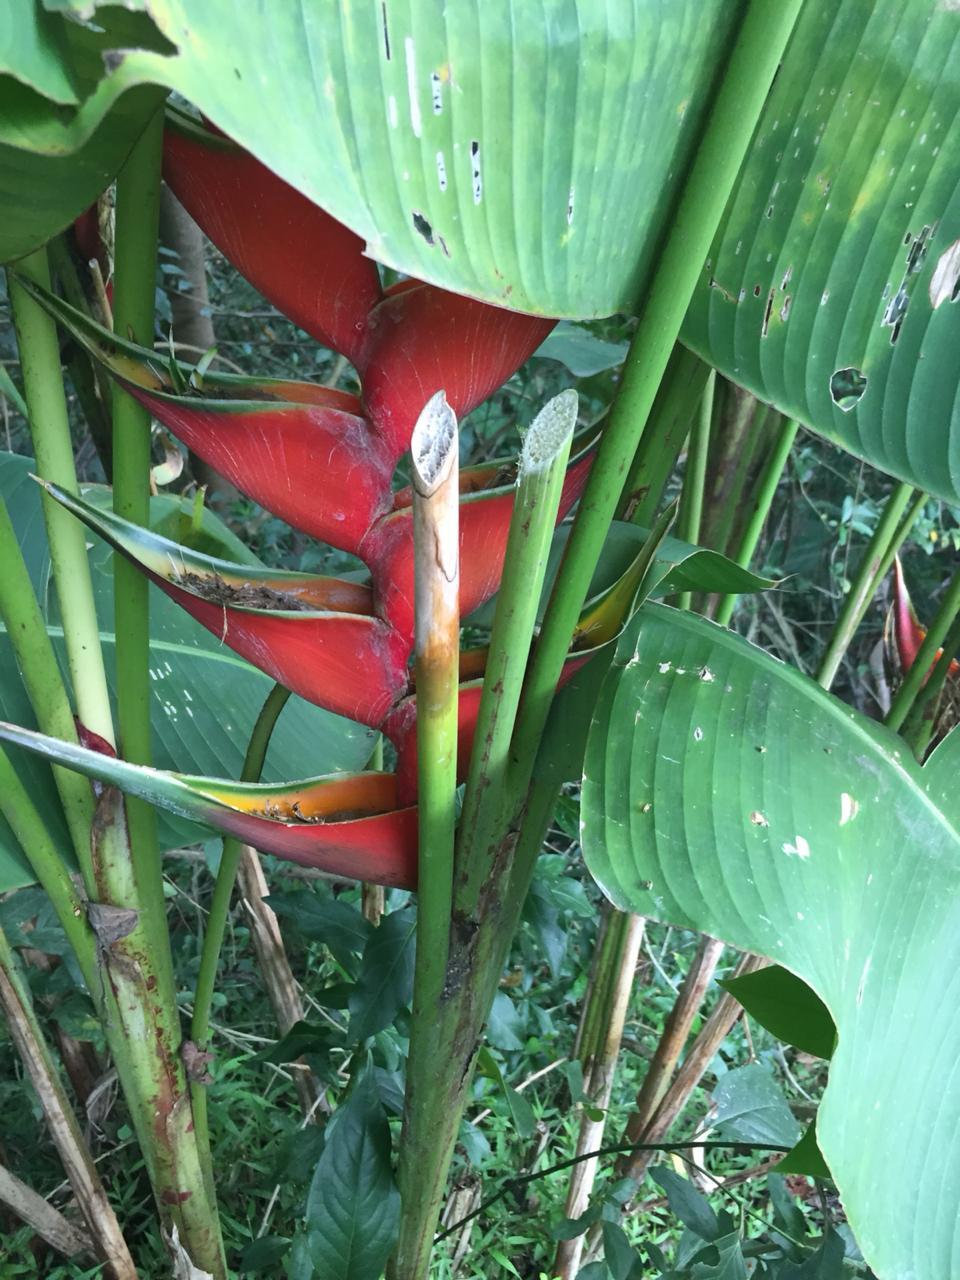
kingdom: Plantae
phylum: Tracheophyta
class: Liliopsida
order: Zingiberales
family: Heliconiaceae
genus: Heliconia
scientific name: Heliconia bihai
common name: Macaw flower
